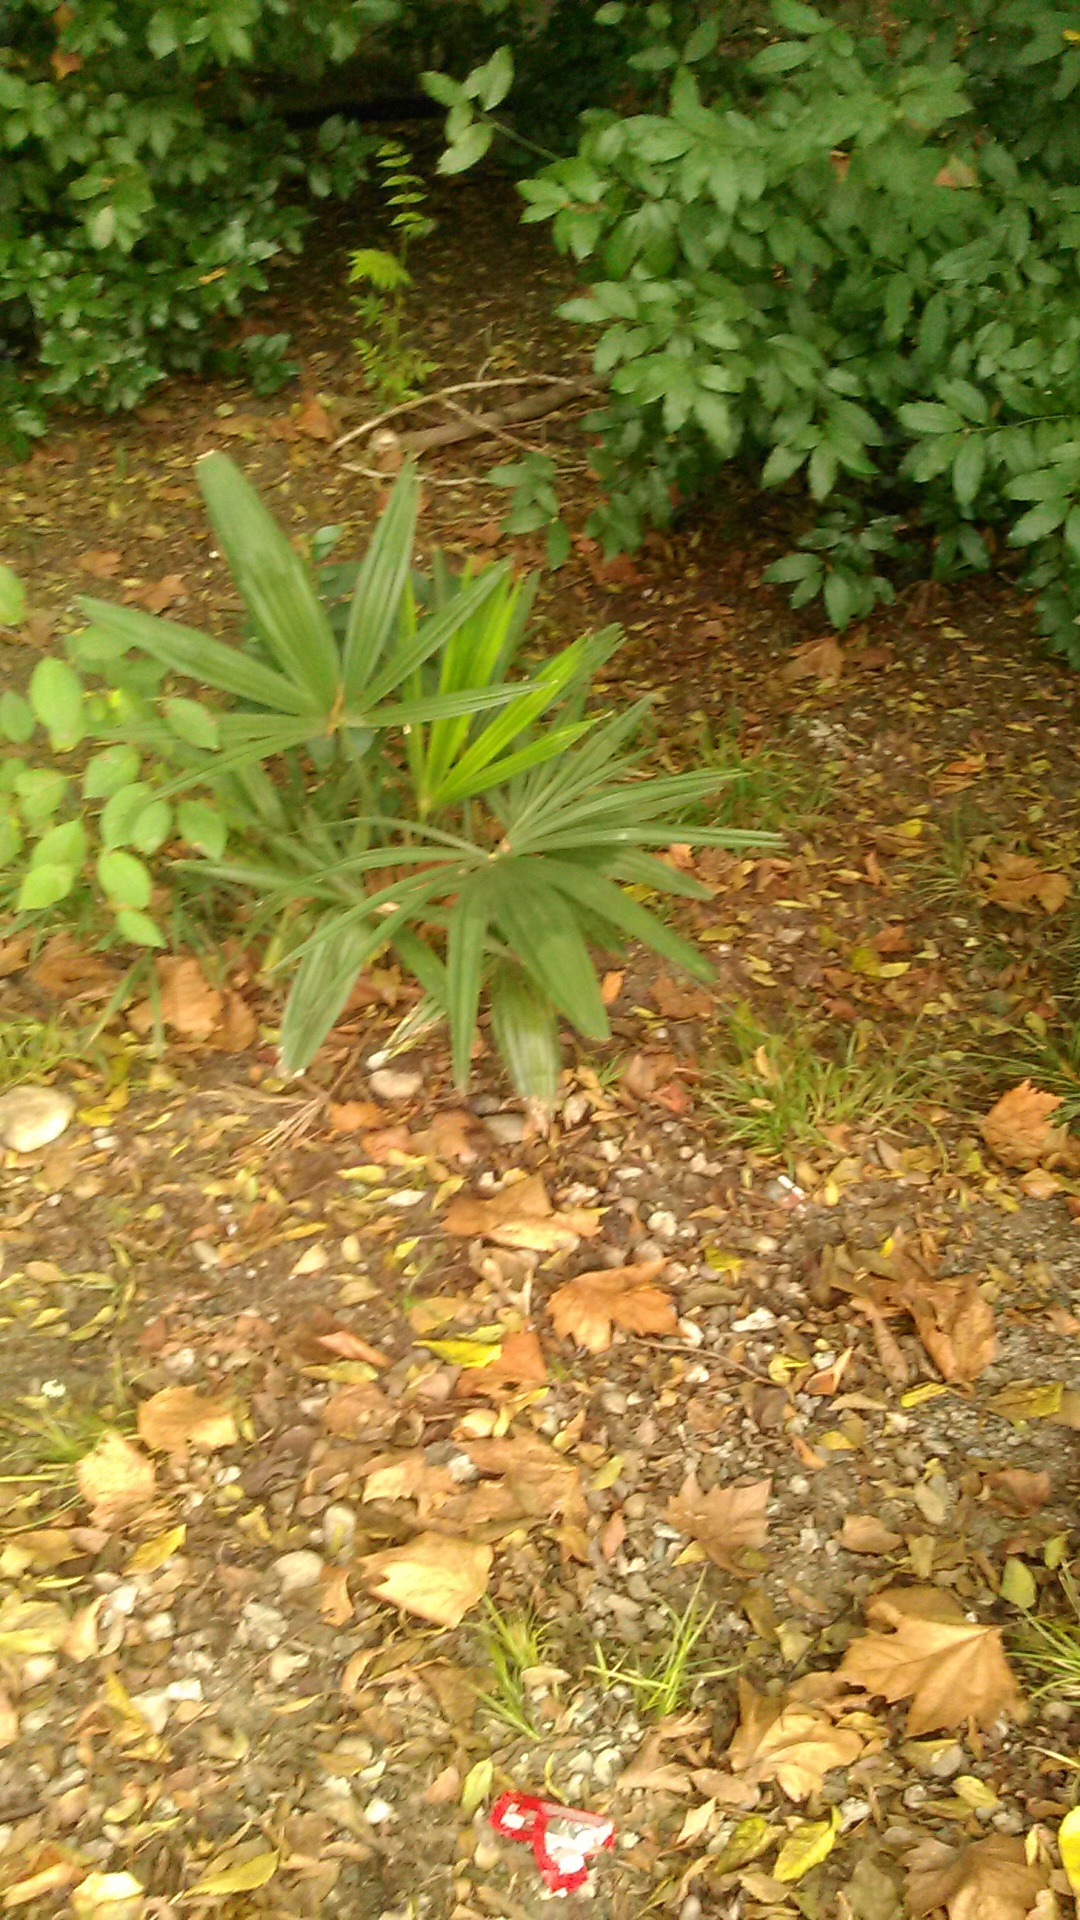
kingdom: Plantae
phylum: Tracheophyta
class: Liliopsida
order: Arecales
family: Arecaceae
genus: Trachycarpus
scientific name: Trachycarpus fortunei
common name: Chusan palm
